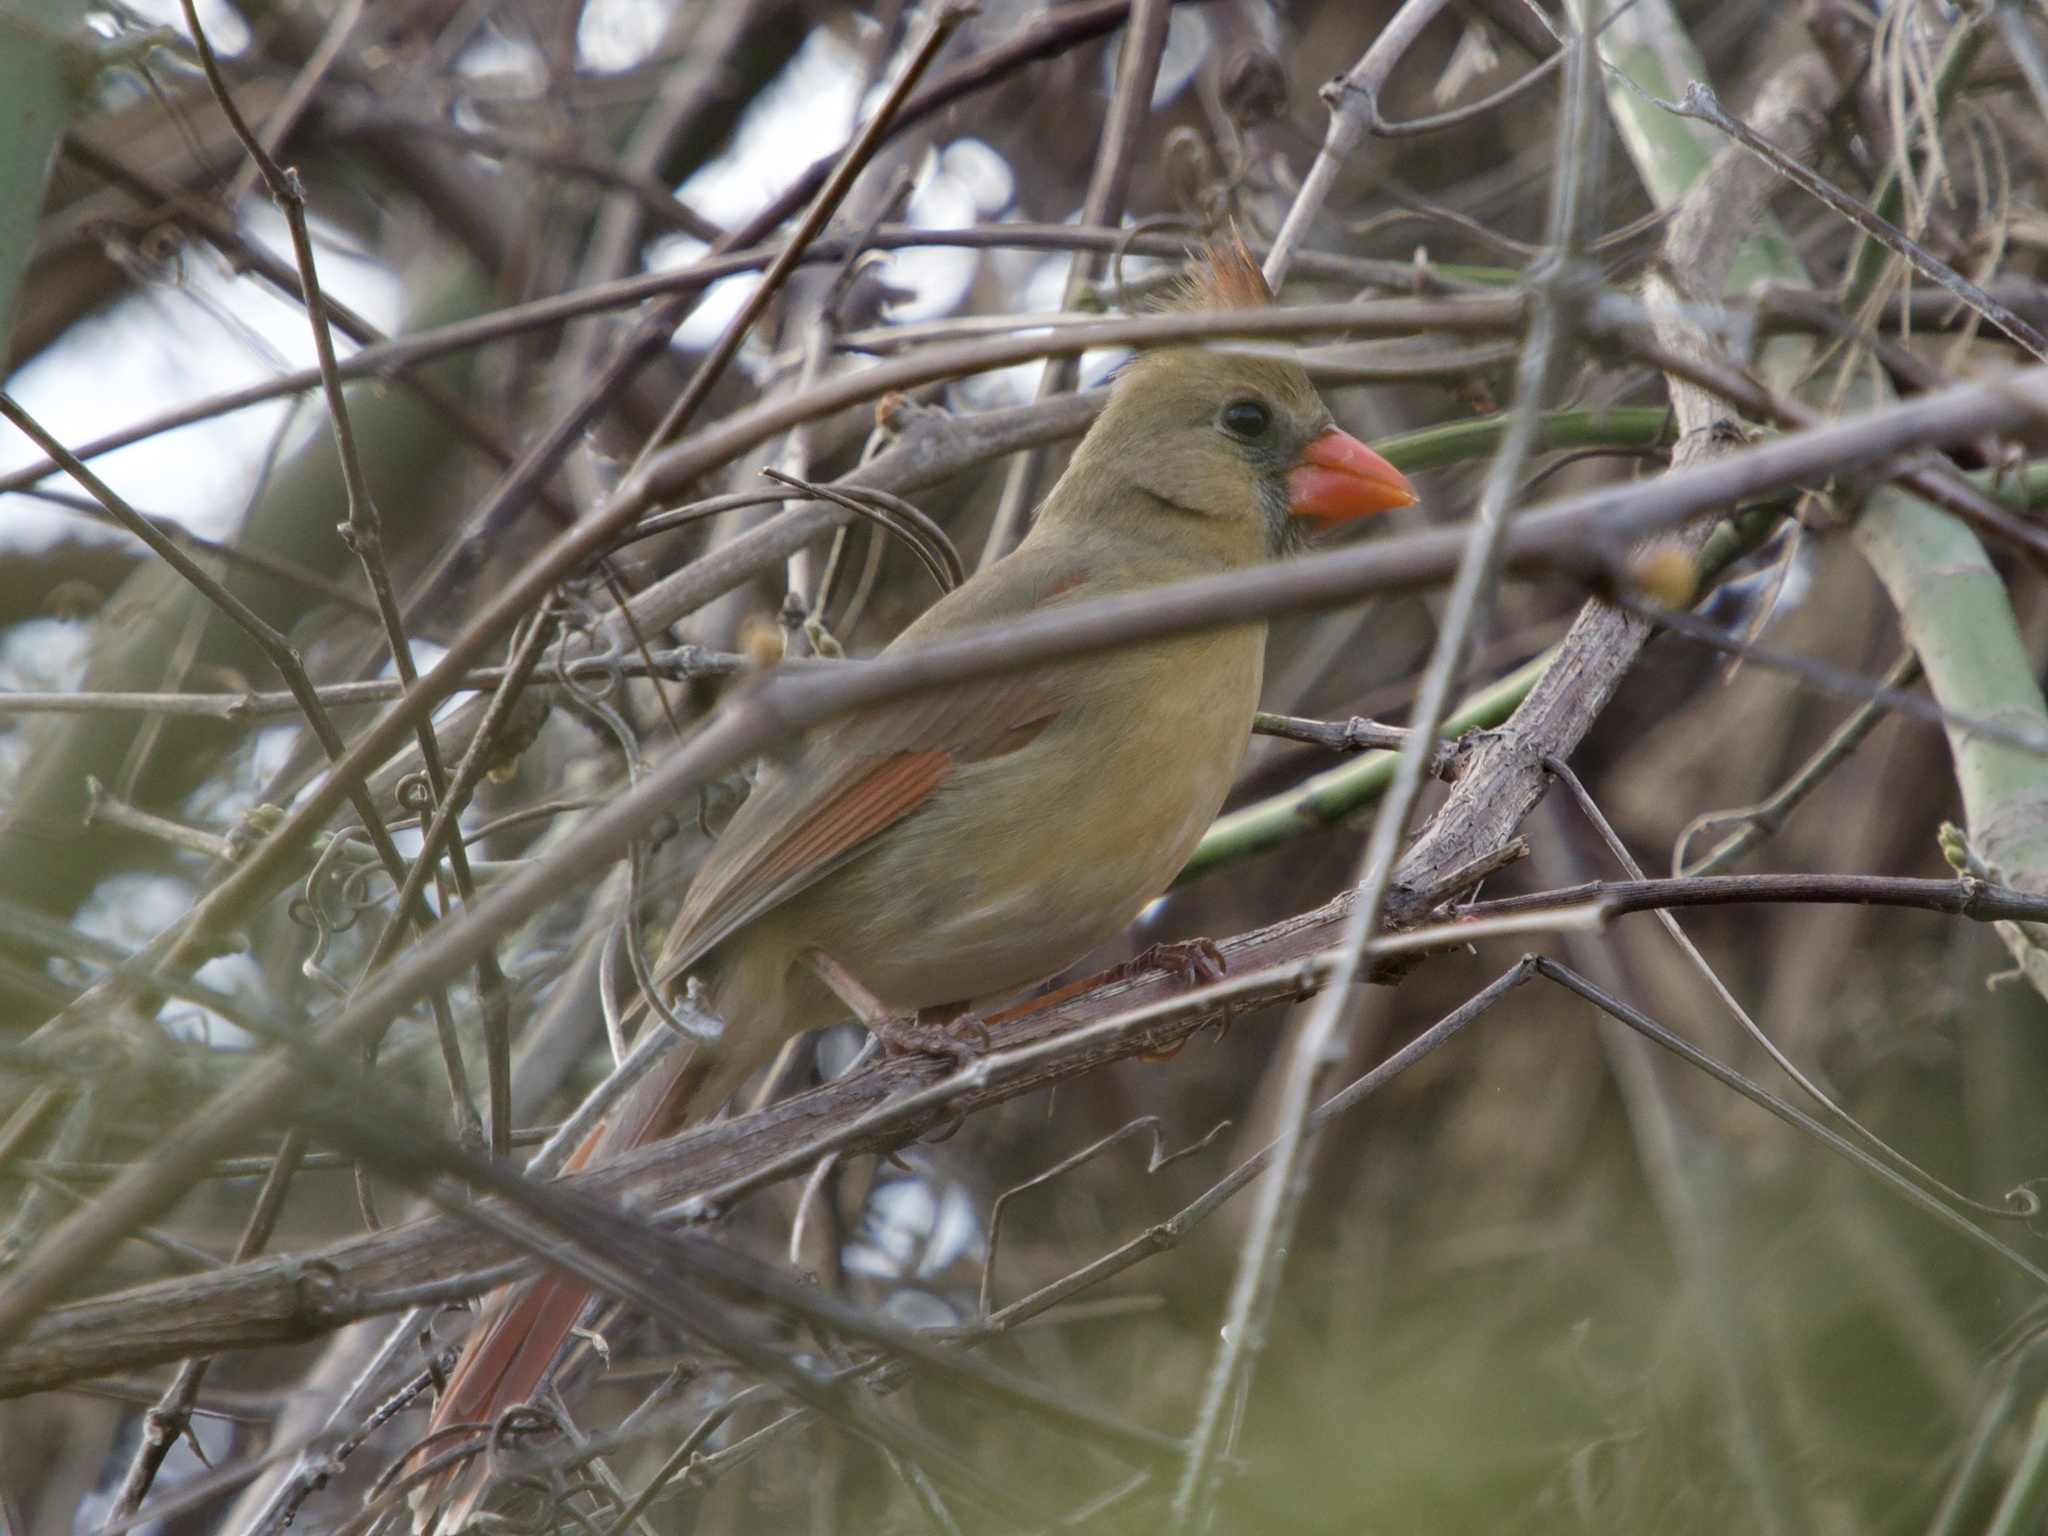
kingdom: Animalia
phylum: Chordata
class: Aves
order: Passeriformes
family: Cardinalidae
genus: Cardinalis
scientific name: Cardinalis cardinalis
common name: Northern cardinal
